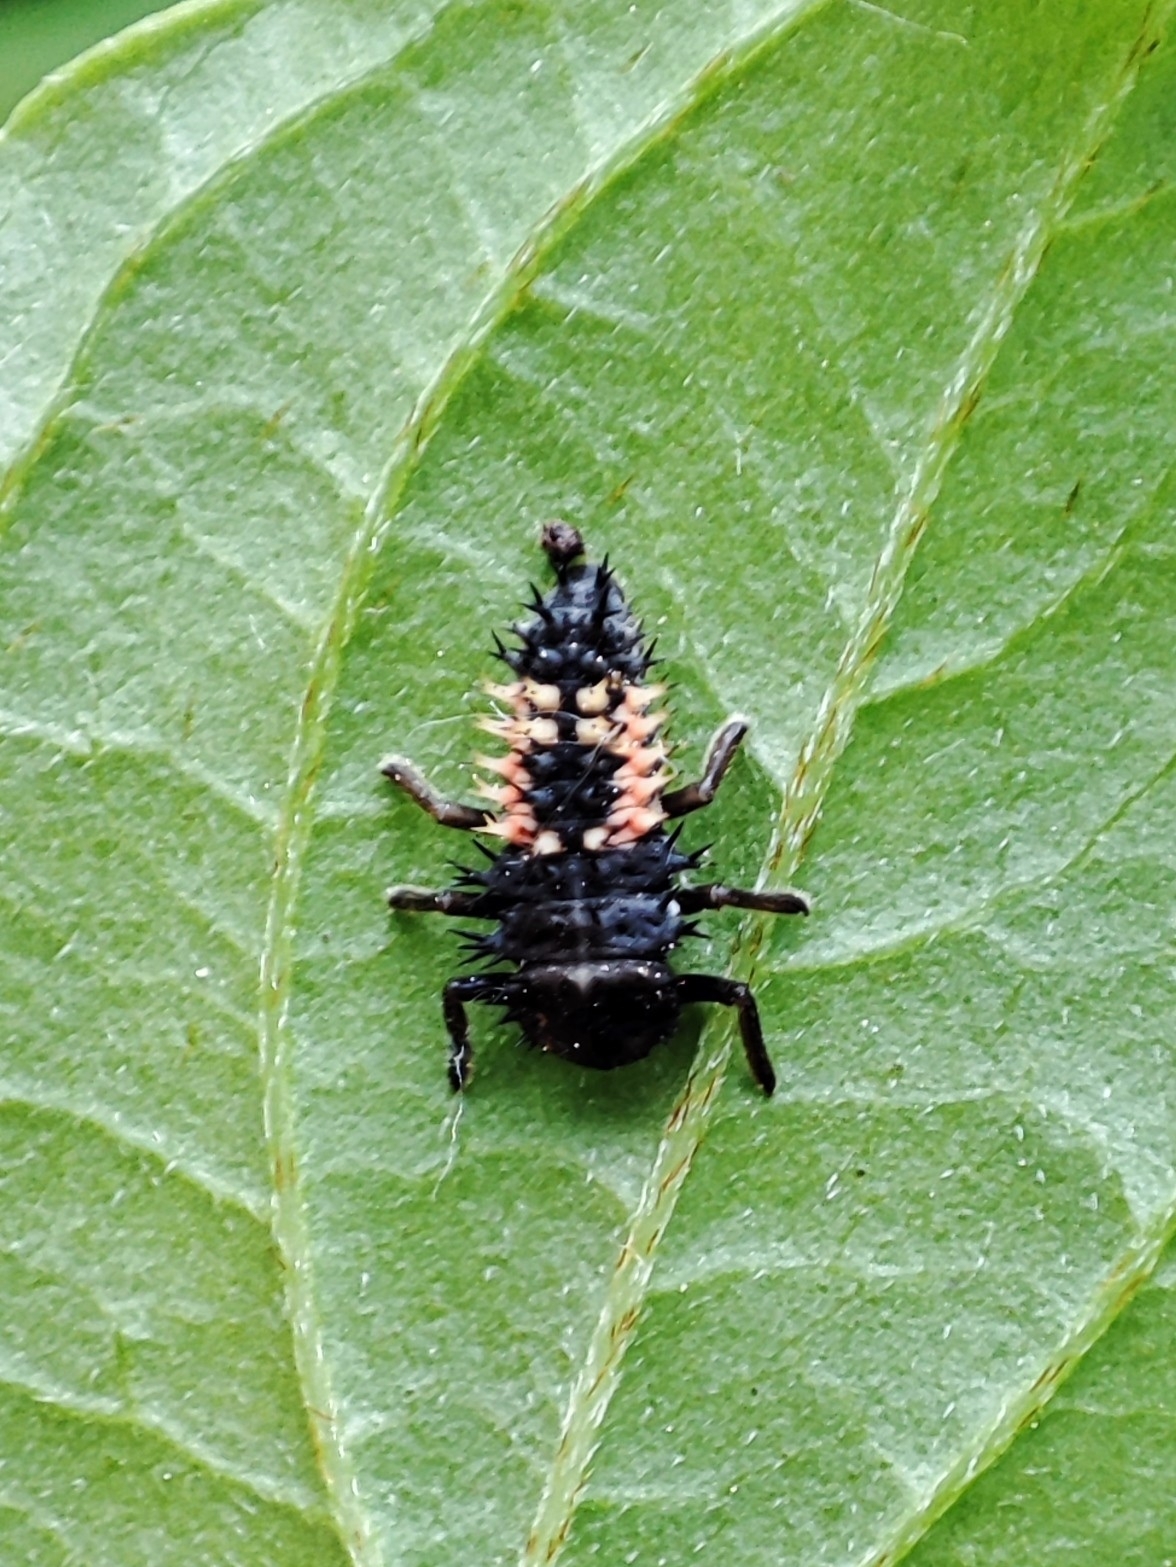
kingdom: Animalia
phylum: Arthropoda
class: Insecta
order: Coleoptera
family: Coccinellidae
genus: Harmonia
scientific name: Harmonia axyridis
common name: Harlequin ladybird
